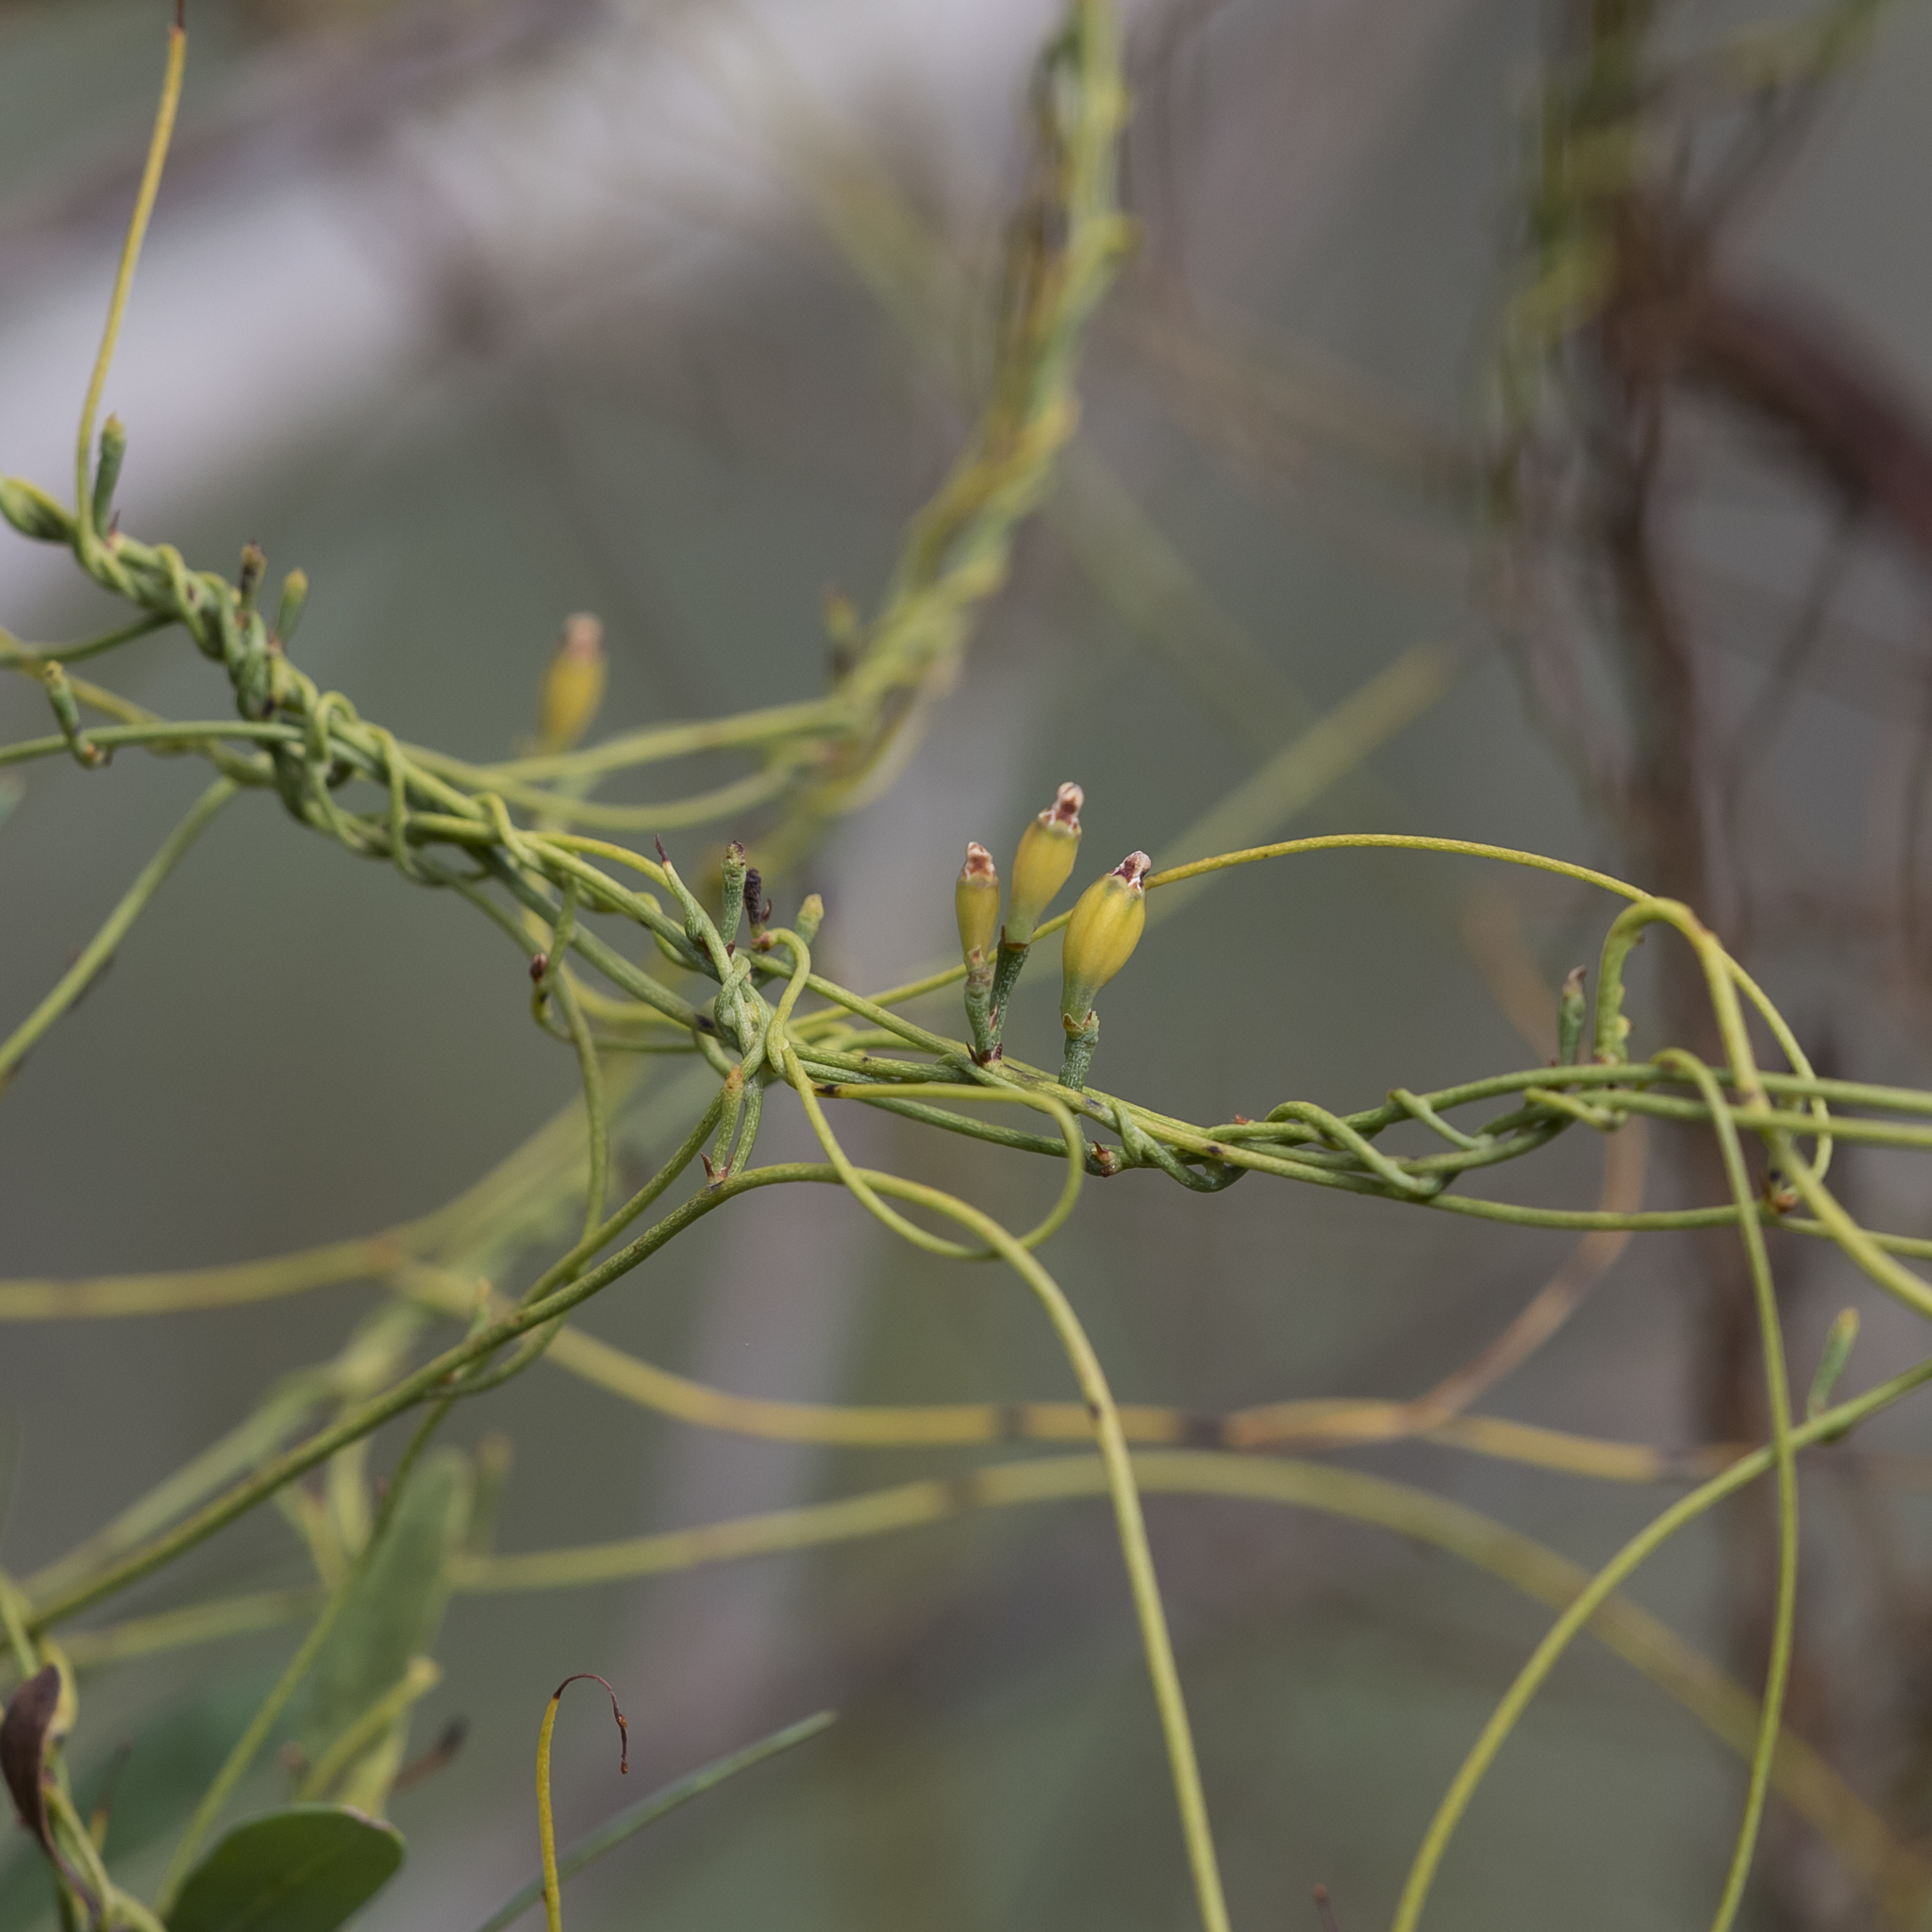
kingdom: Plantae
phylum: Tracheophyta
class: Magnoliopsida
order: Laurales
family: Lauraceae
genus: Cassytha
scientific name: Cassytha glabella
